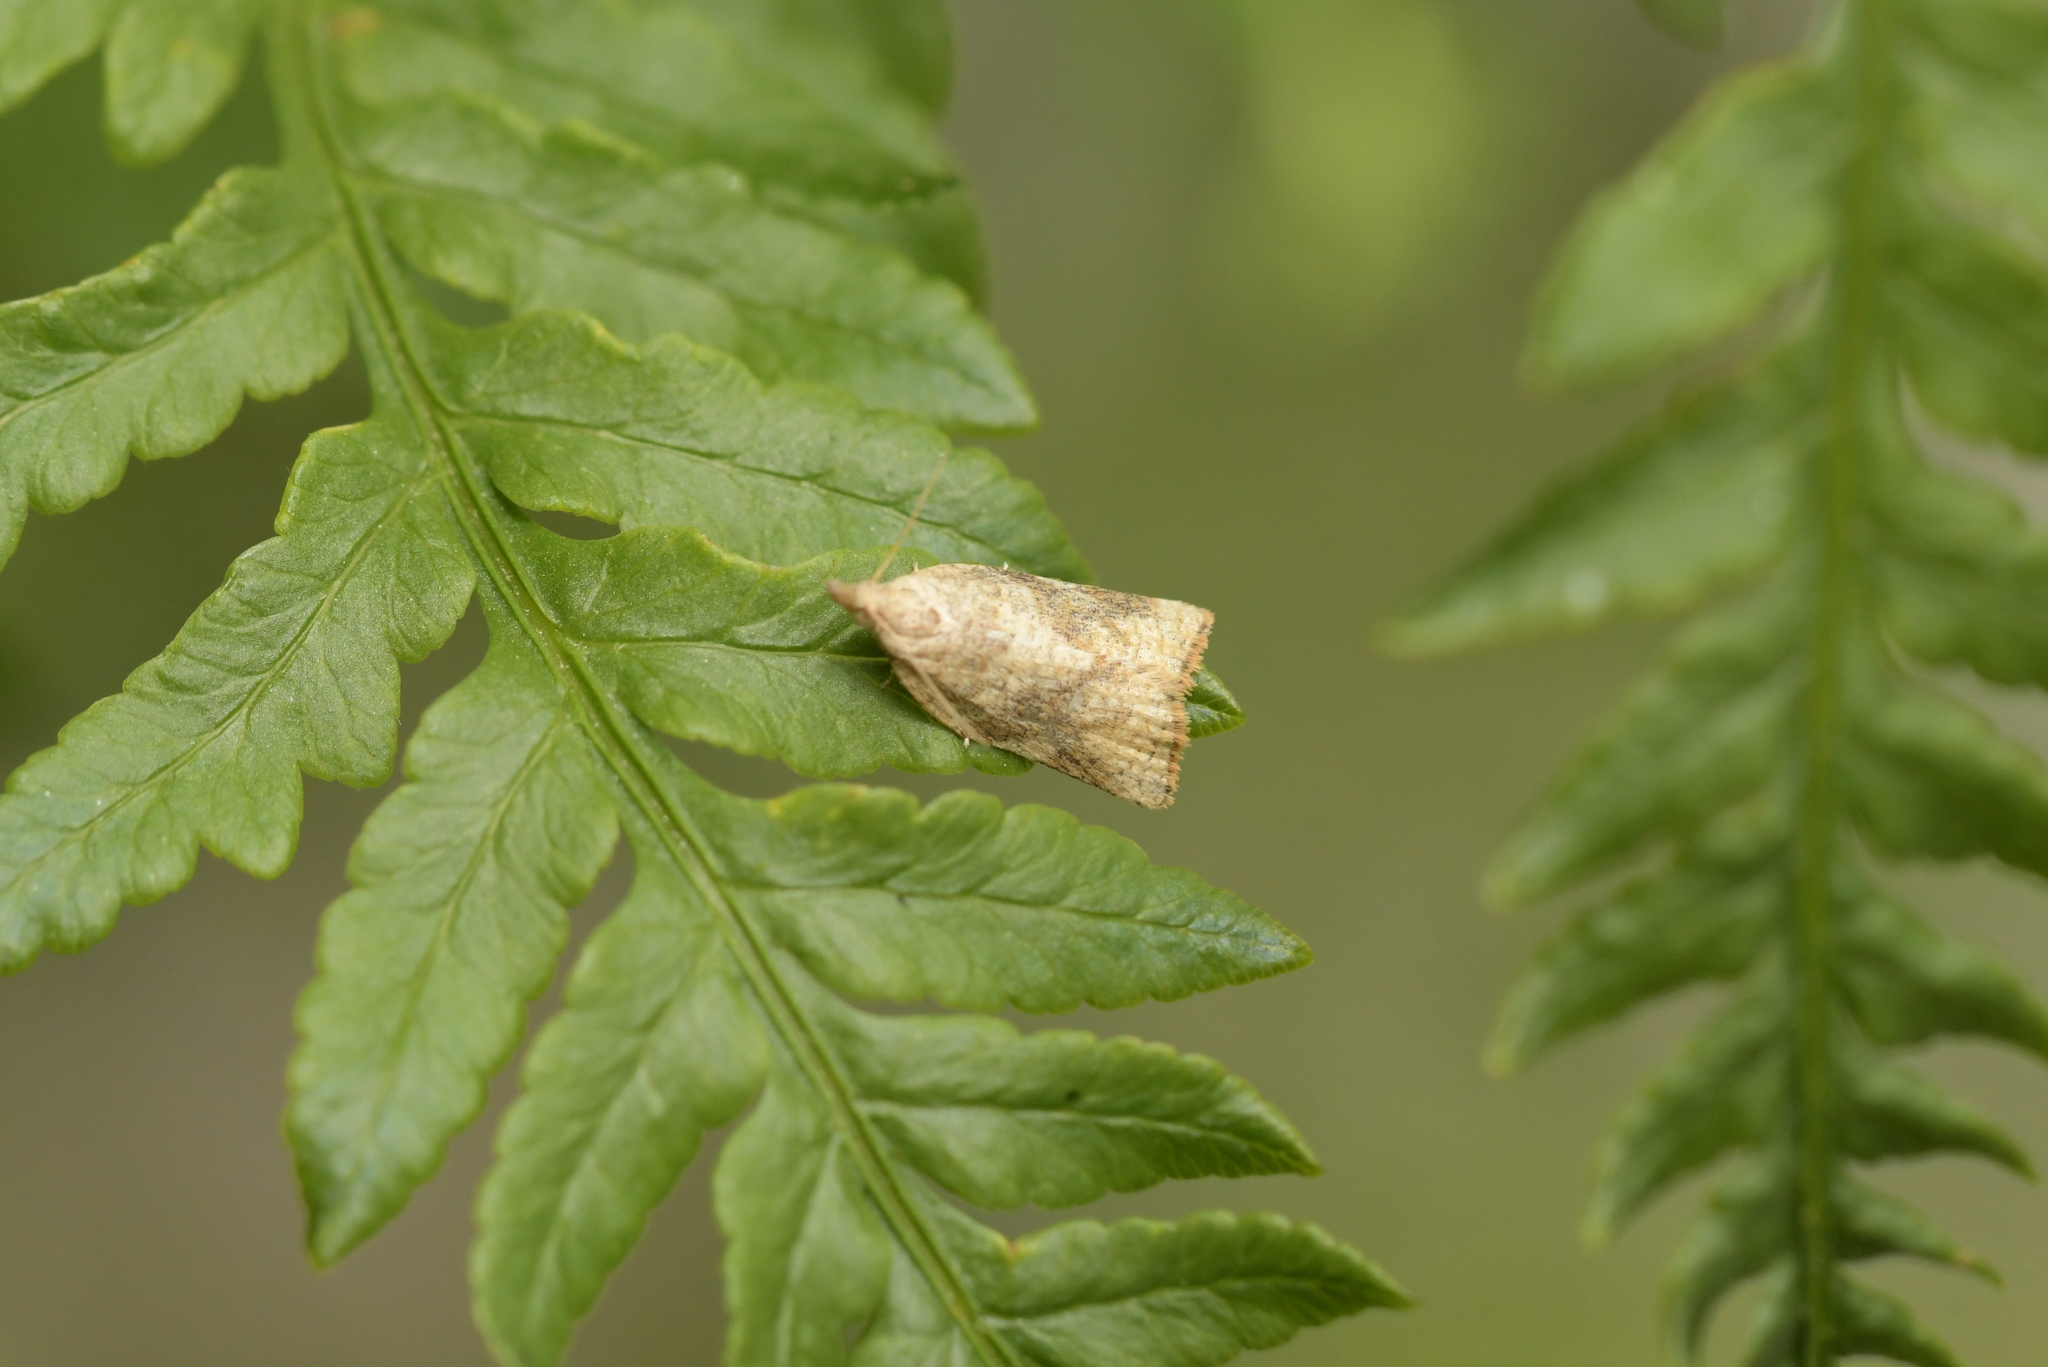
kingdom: Animalia
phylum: Arthropoda
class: Insecta
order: Lepidoptera
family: Tortricidae
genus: Catamacta
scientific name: Catamacta gavisana
